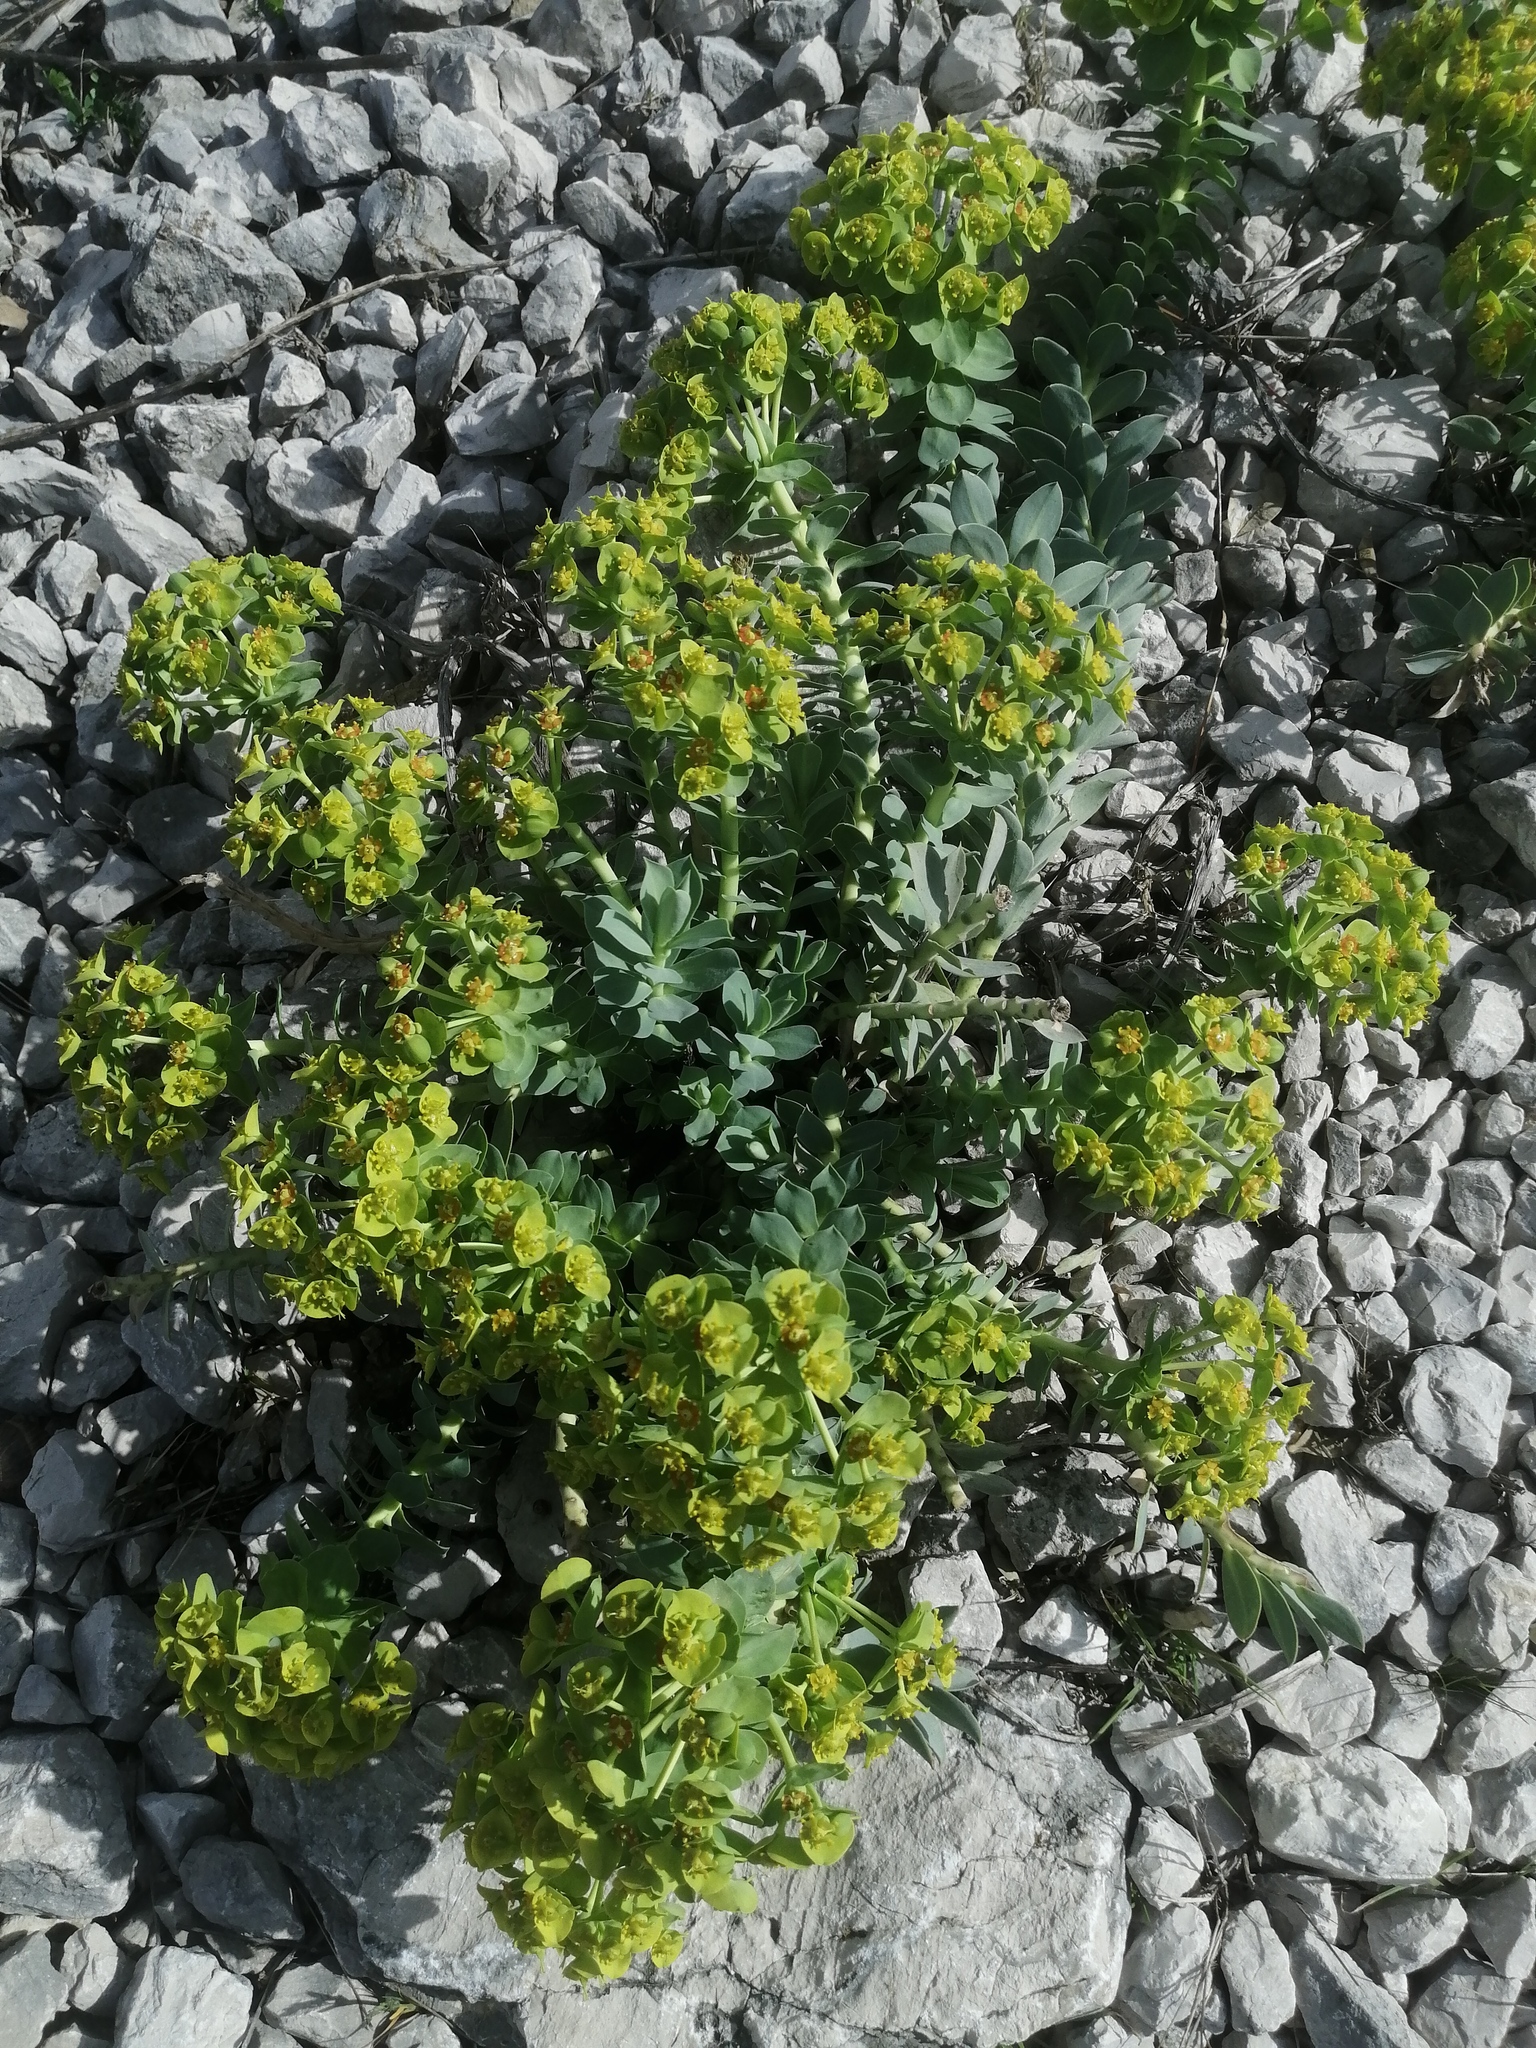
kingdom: Plantae
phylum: Tracheophyta
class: Magnoliopsida
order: Malpighiales
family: Euphorbiaceae
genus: Euphorbia
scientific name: Euphorbia myrsinites
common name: Myrtle spurge
